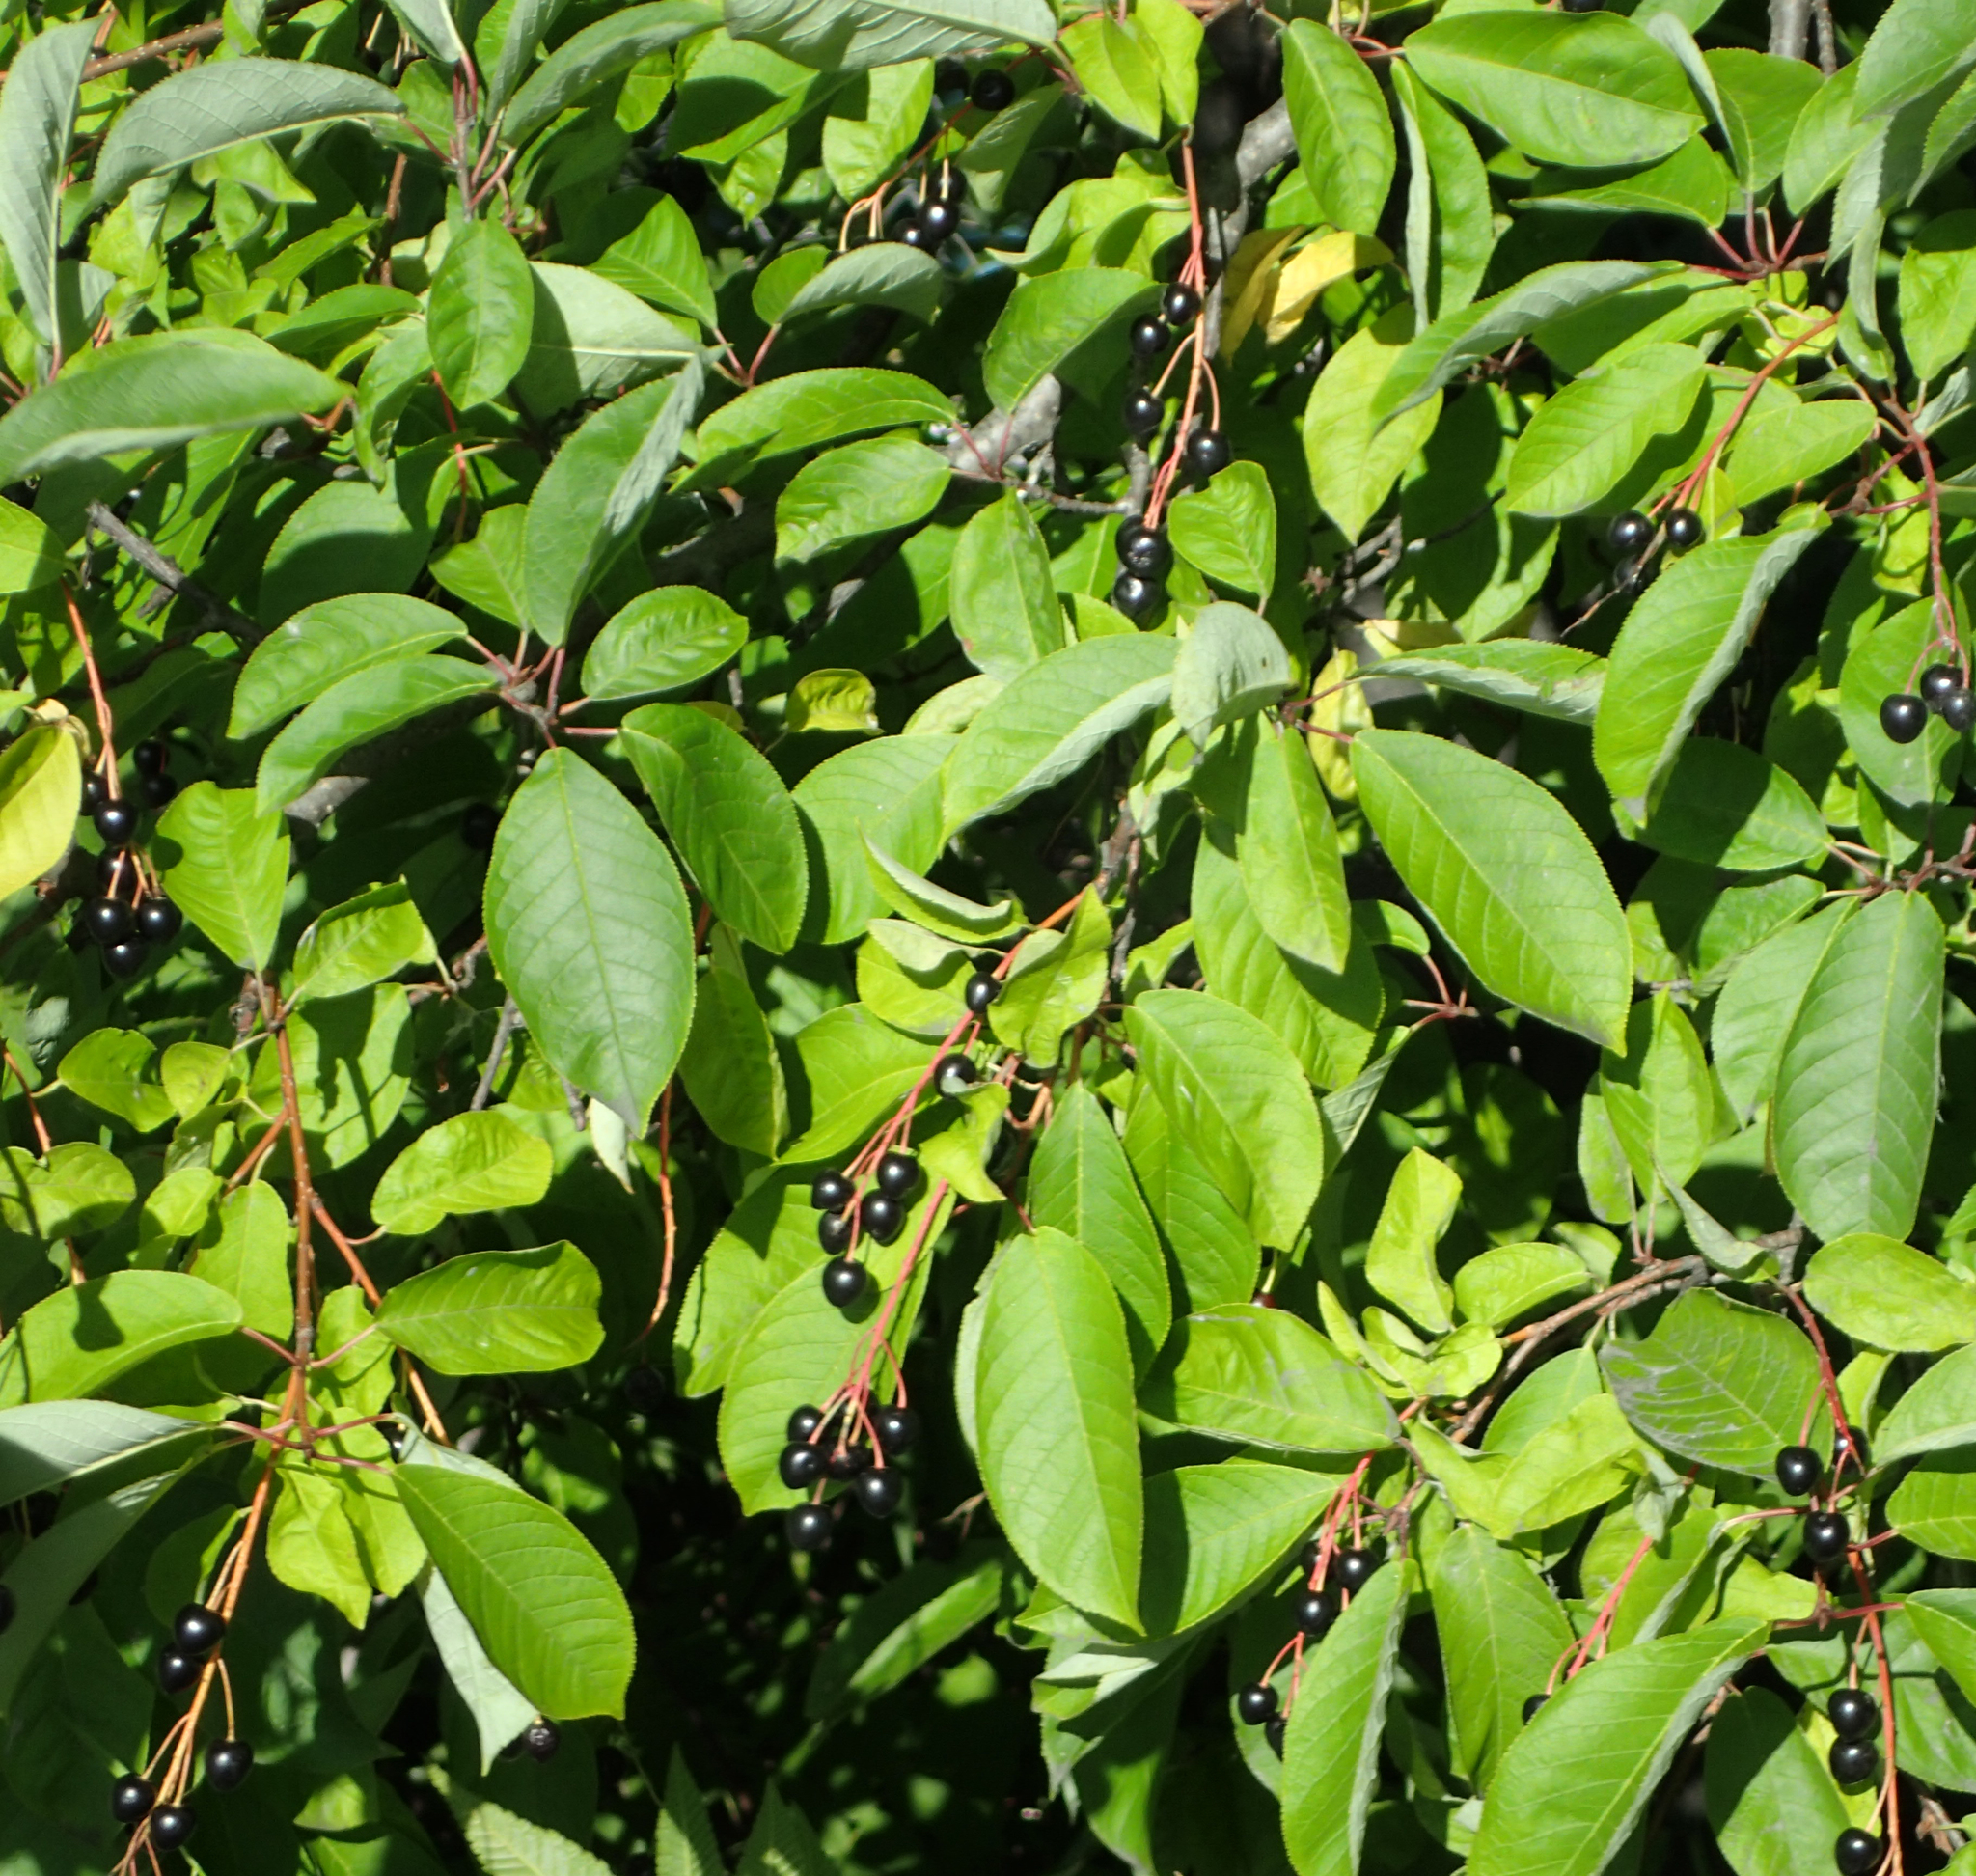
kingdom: Plantae
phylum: Tracheophyta
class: Magnoliopsida
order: Rosales
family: Rosaceae
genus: Prunus
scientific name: Prunus padus
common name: Bird cherry
